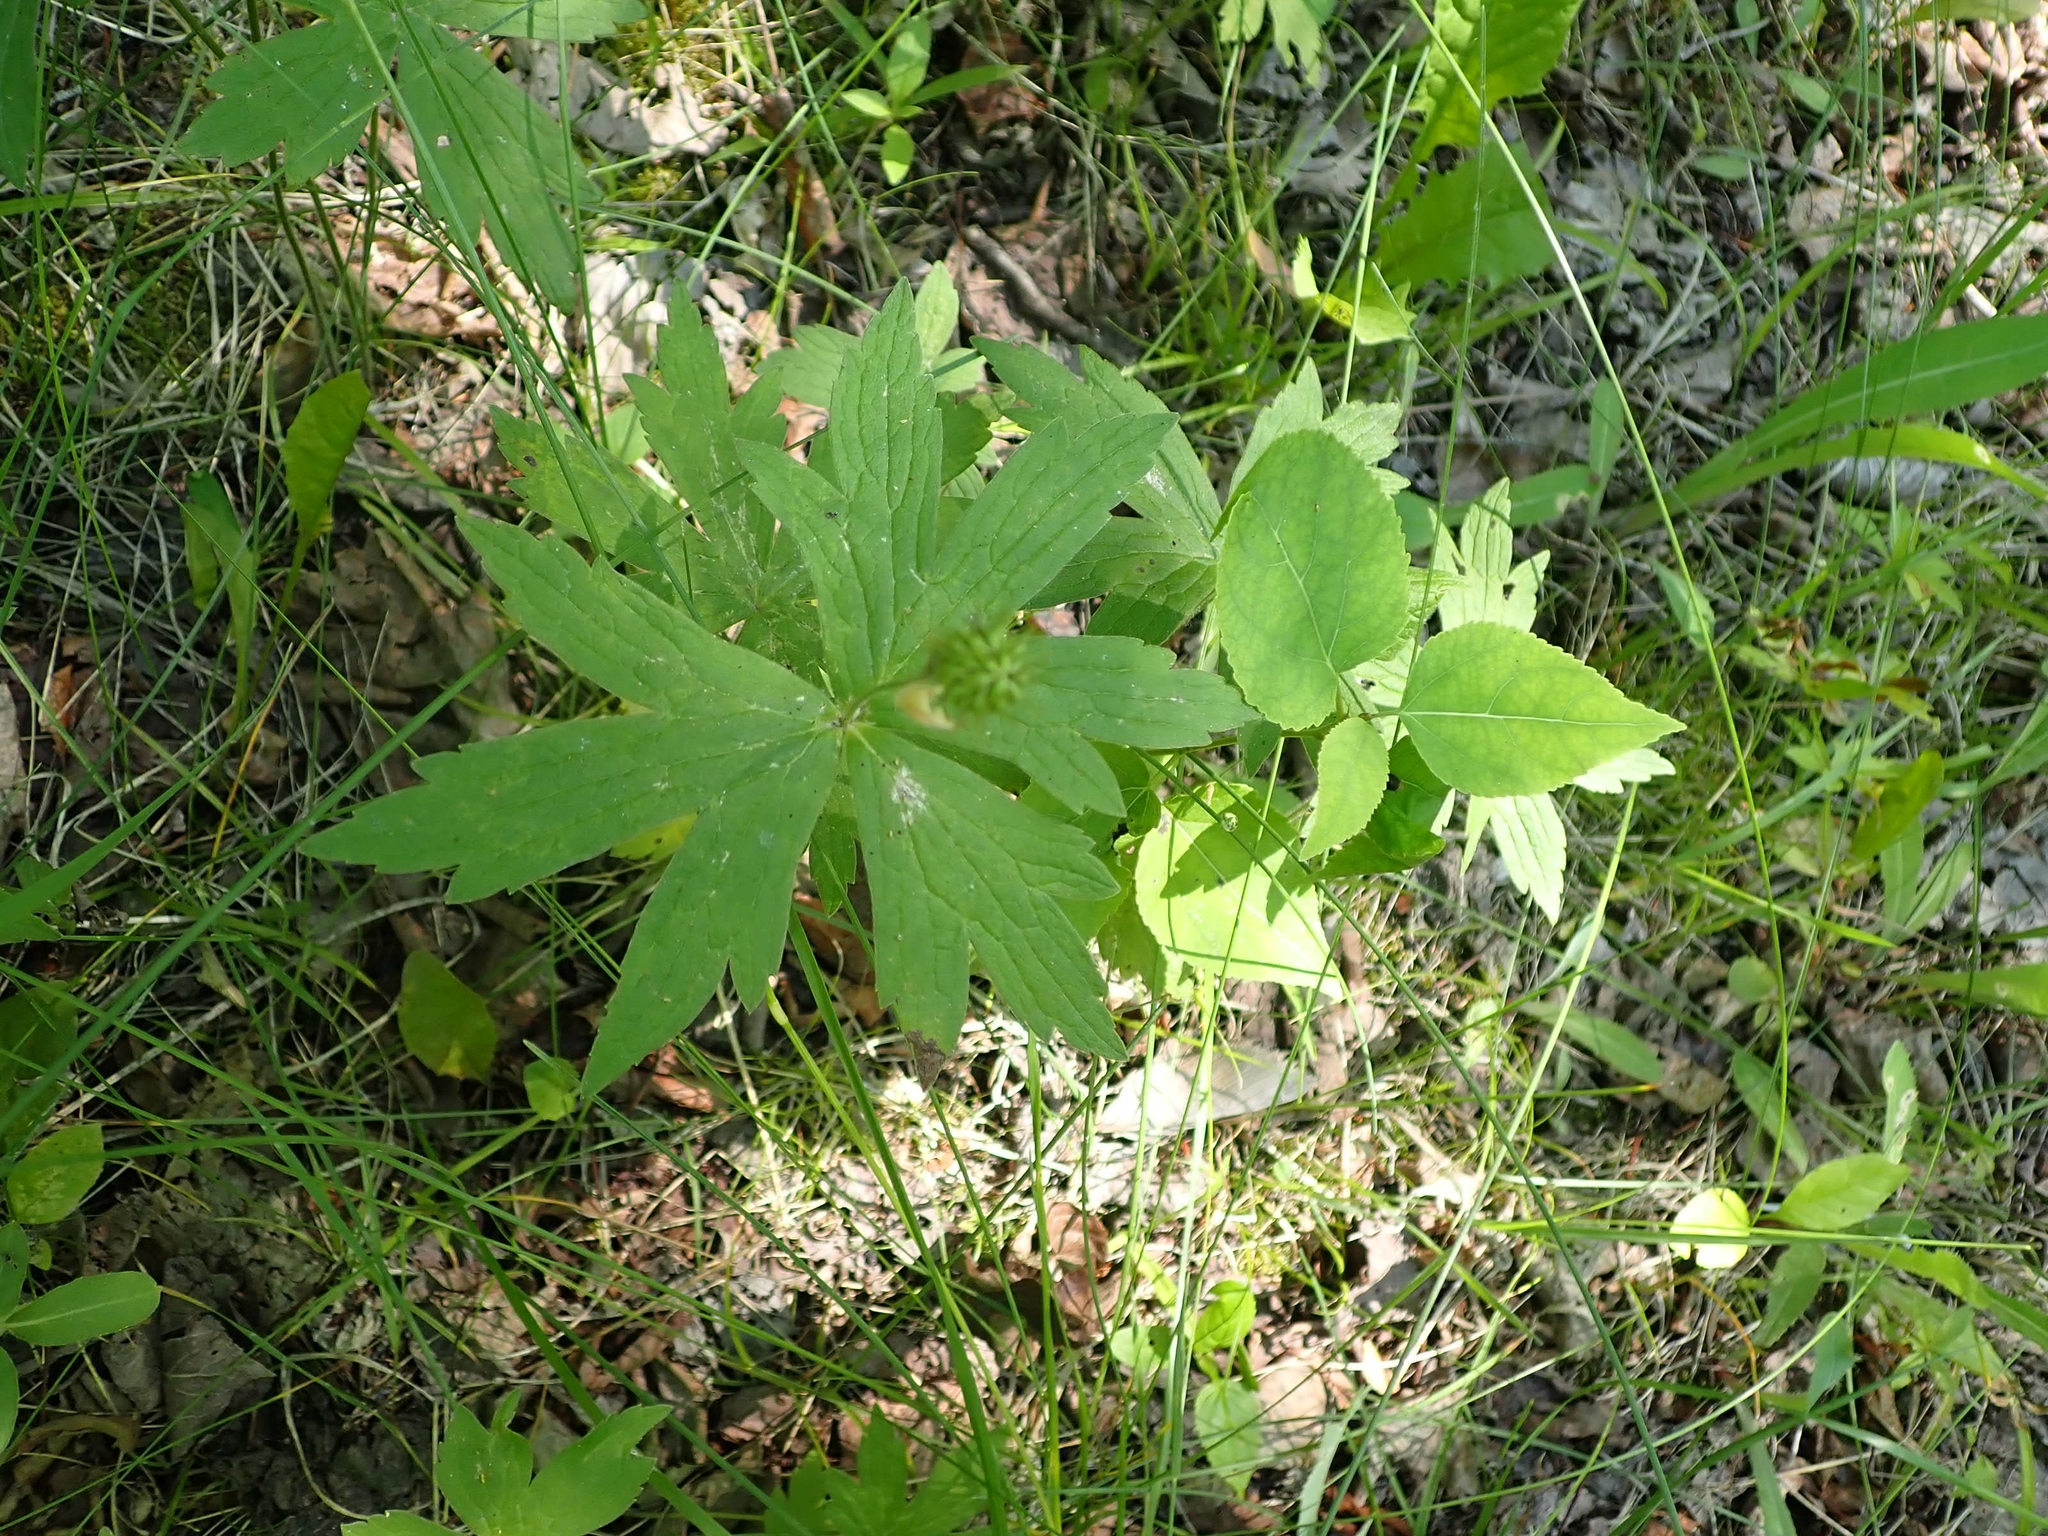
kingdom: Plantae
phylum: Tracheophyta
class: Magnoliopsida
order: Ranunculales
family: Ranunculaceae
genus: Anemonastrum
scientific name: Anemonastrum canadense
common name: Canada anemone
